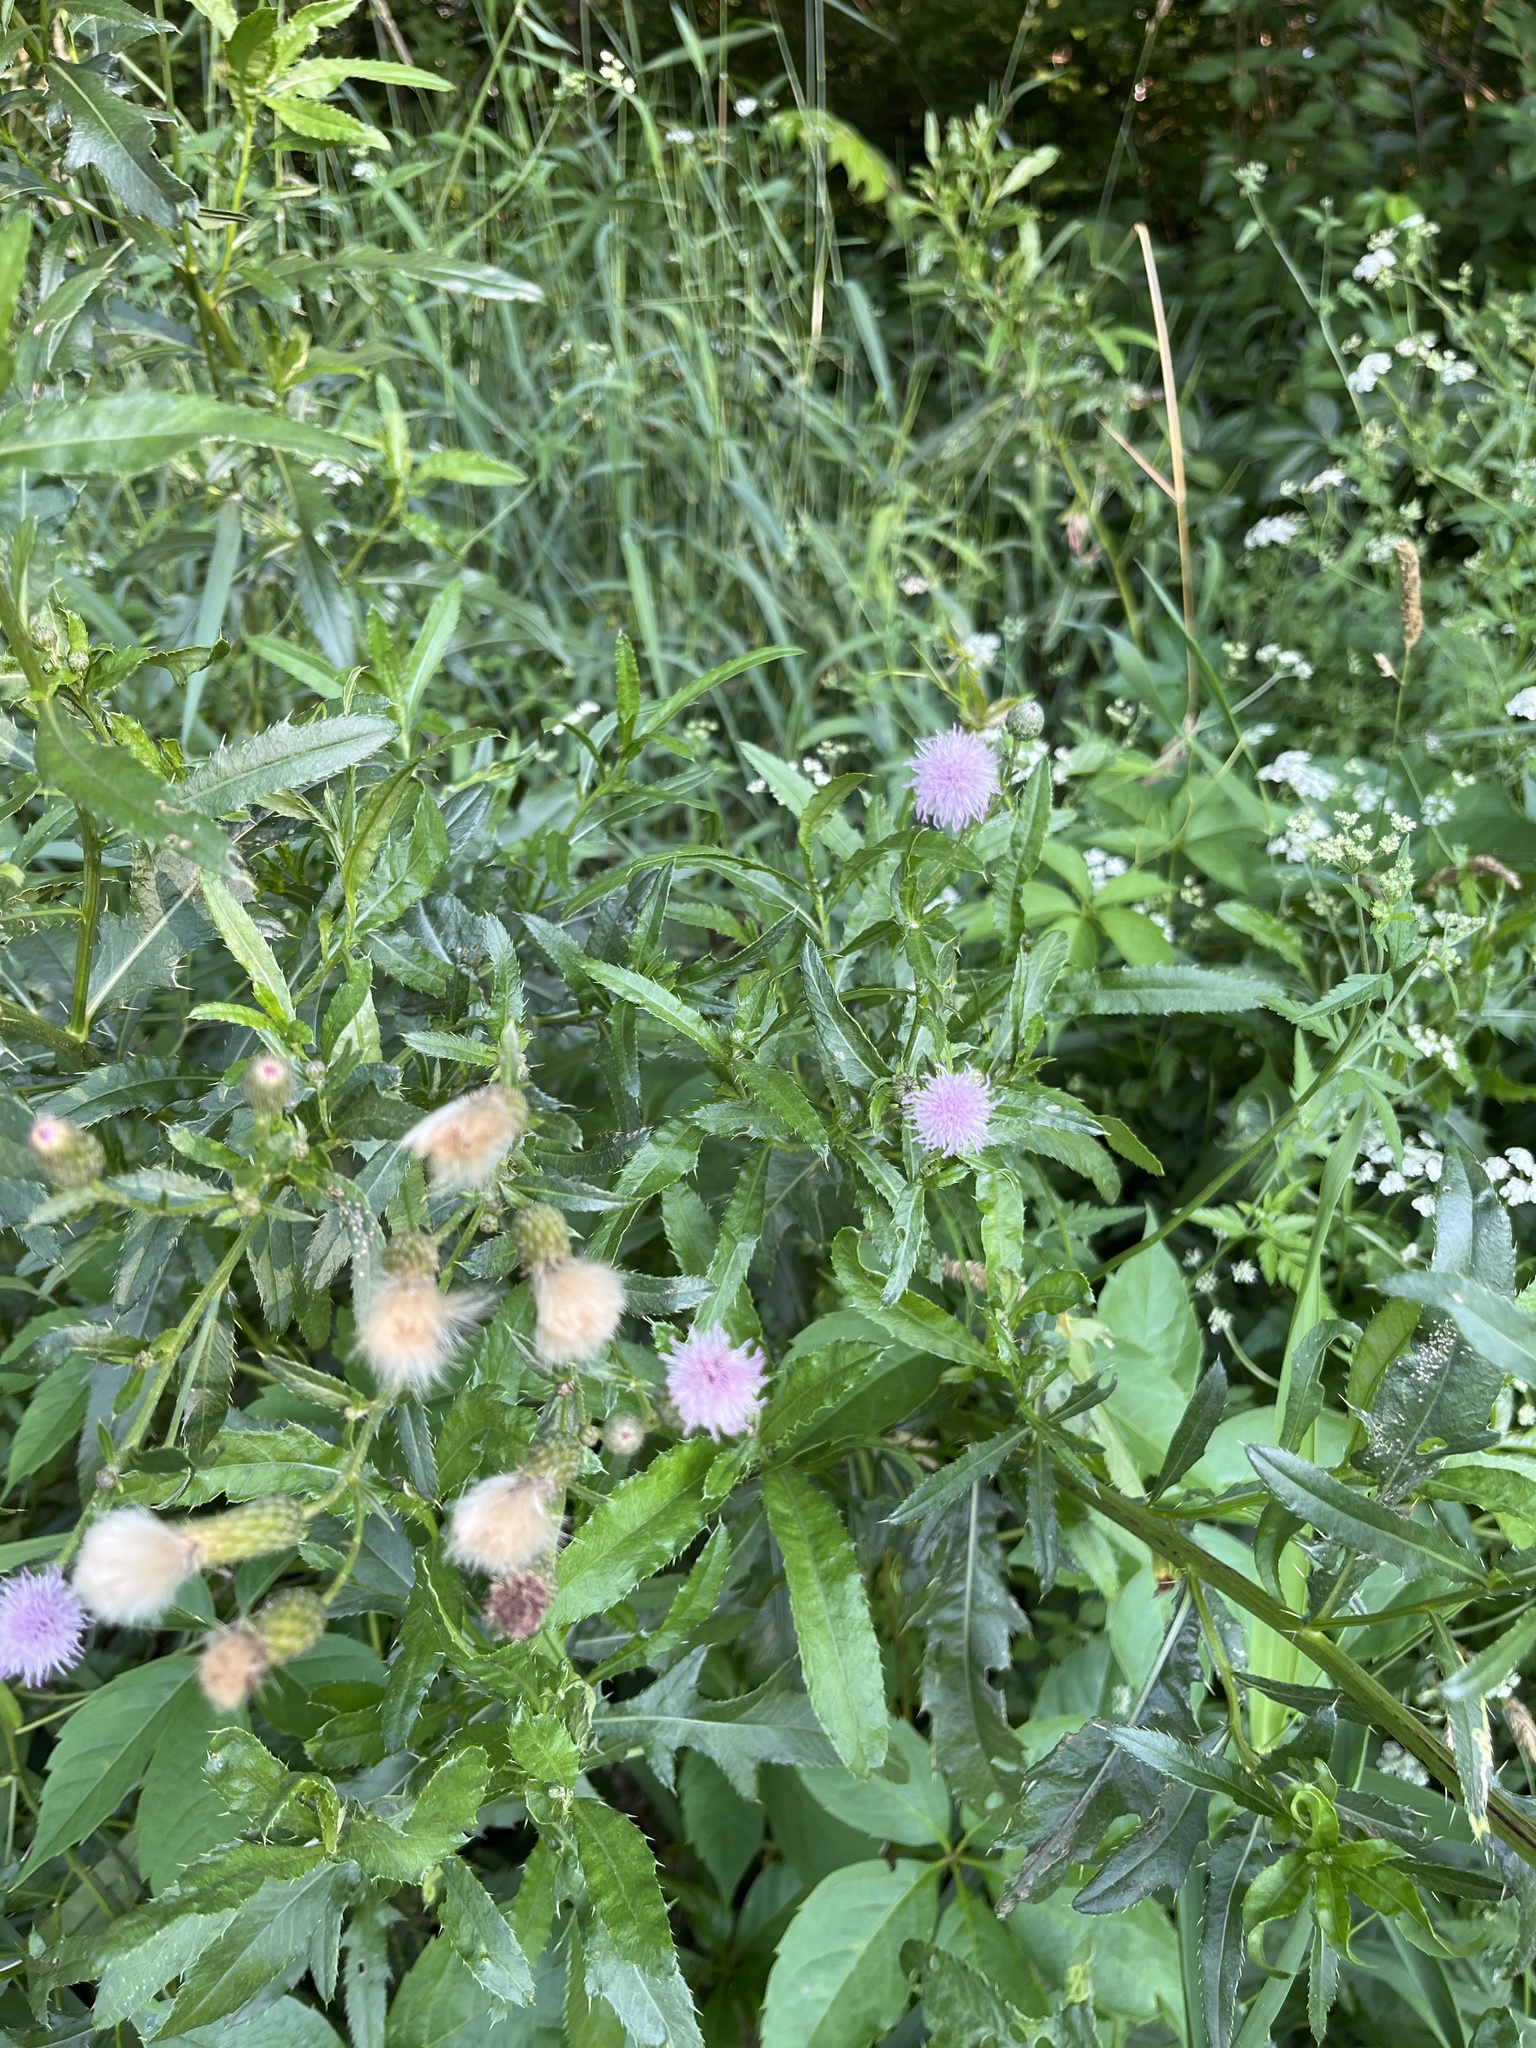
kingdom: Plantae
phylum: Tracheophyta
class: Magnoliopsida
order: Asterales
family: Asteraceae
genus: Cirsium
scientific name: Cirsium arvense
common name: Creeping thistle
